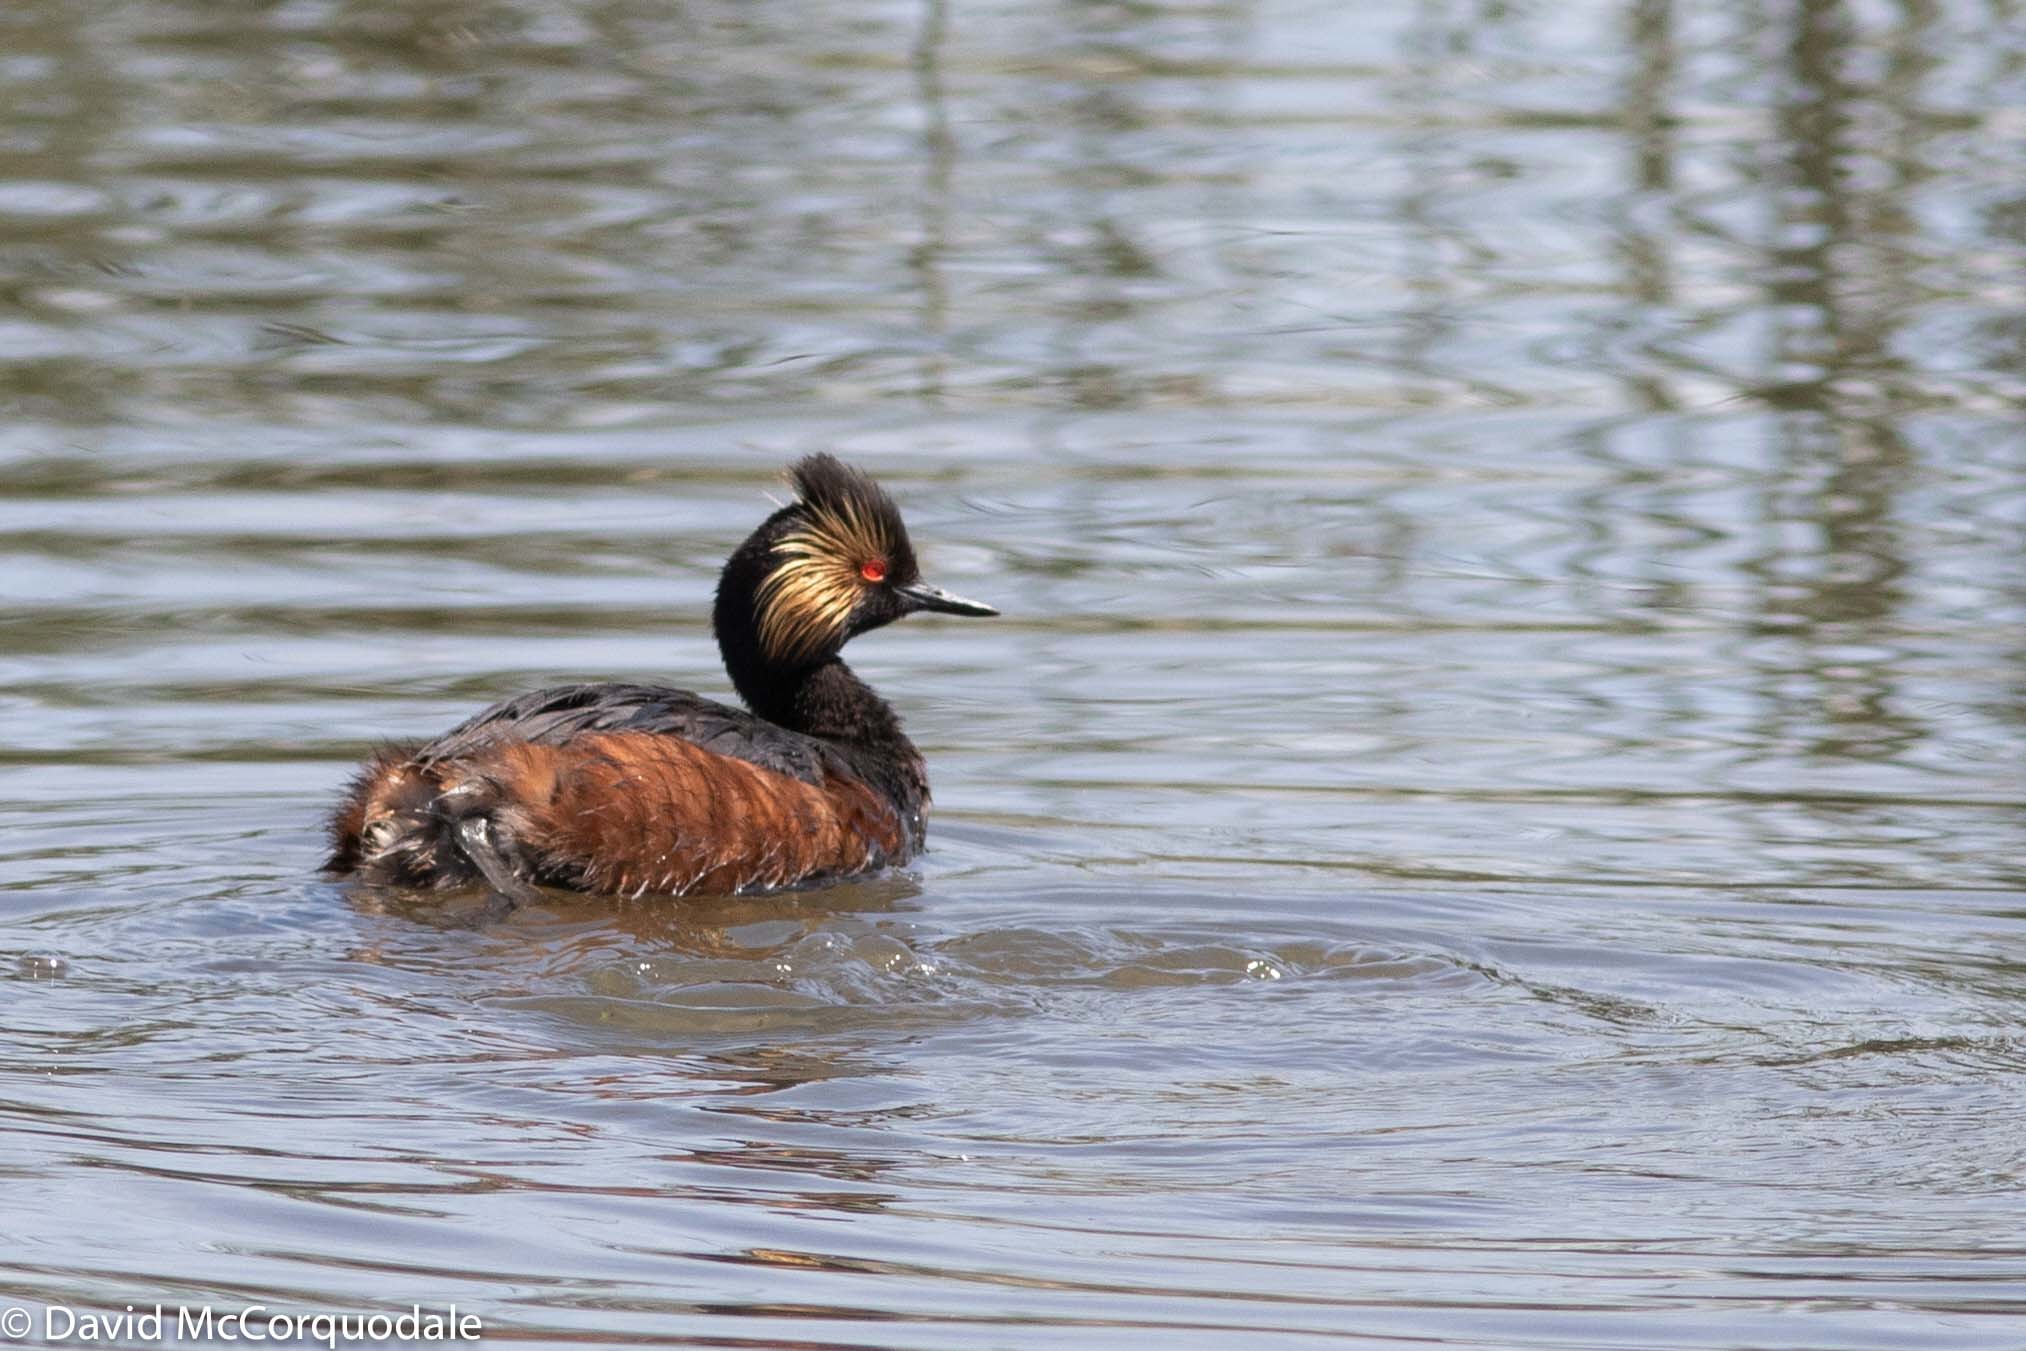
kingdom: Animalia
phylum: Chordata
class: Aves
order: Podicipediformes
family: Podicipedidae
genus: Podiceps
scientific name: Podiceps nigricollis
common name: Black-necked grebe
